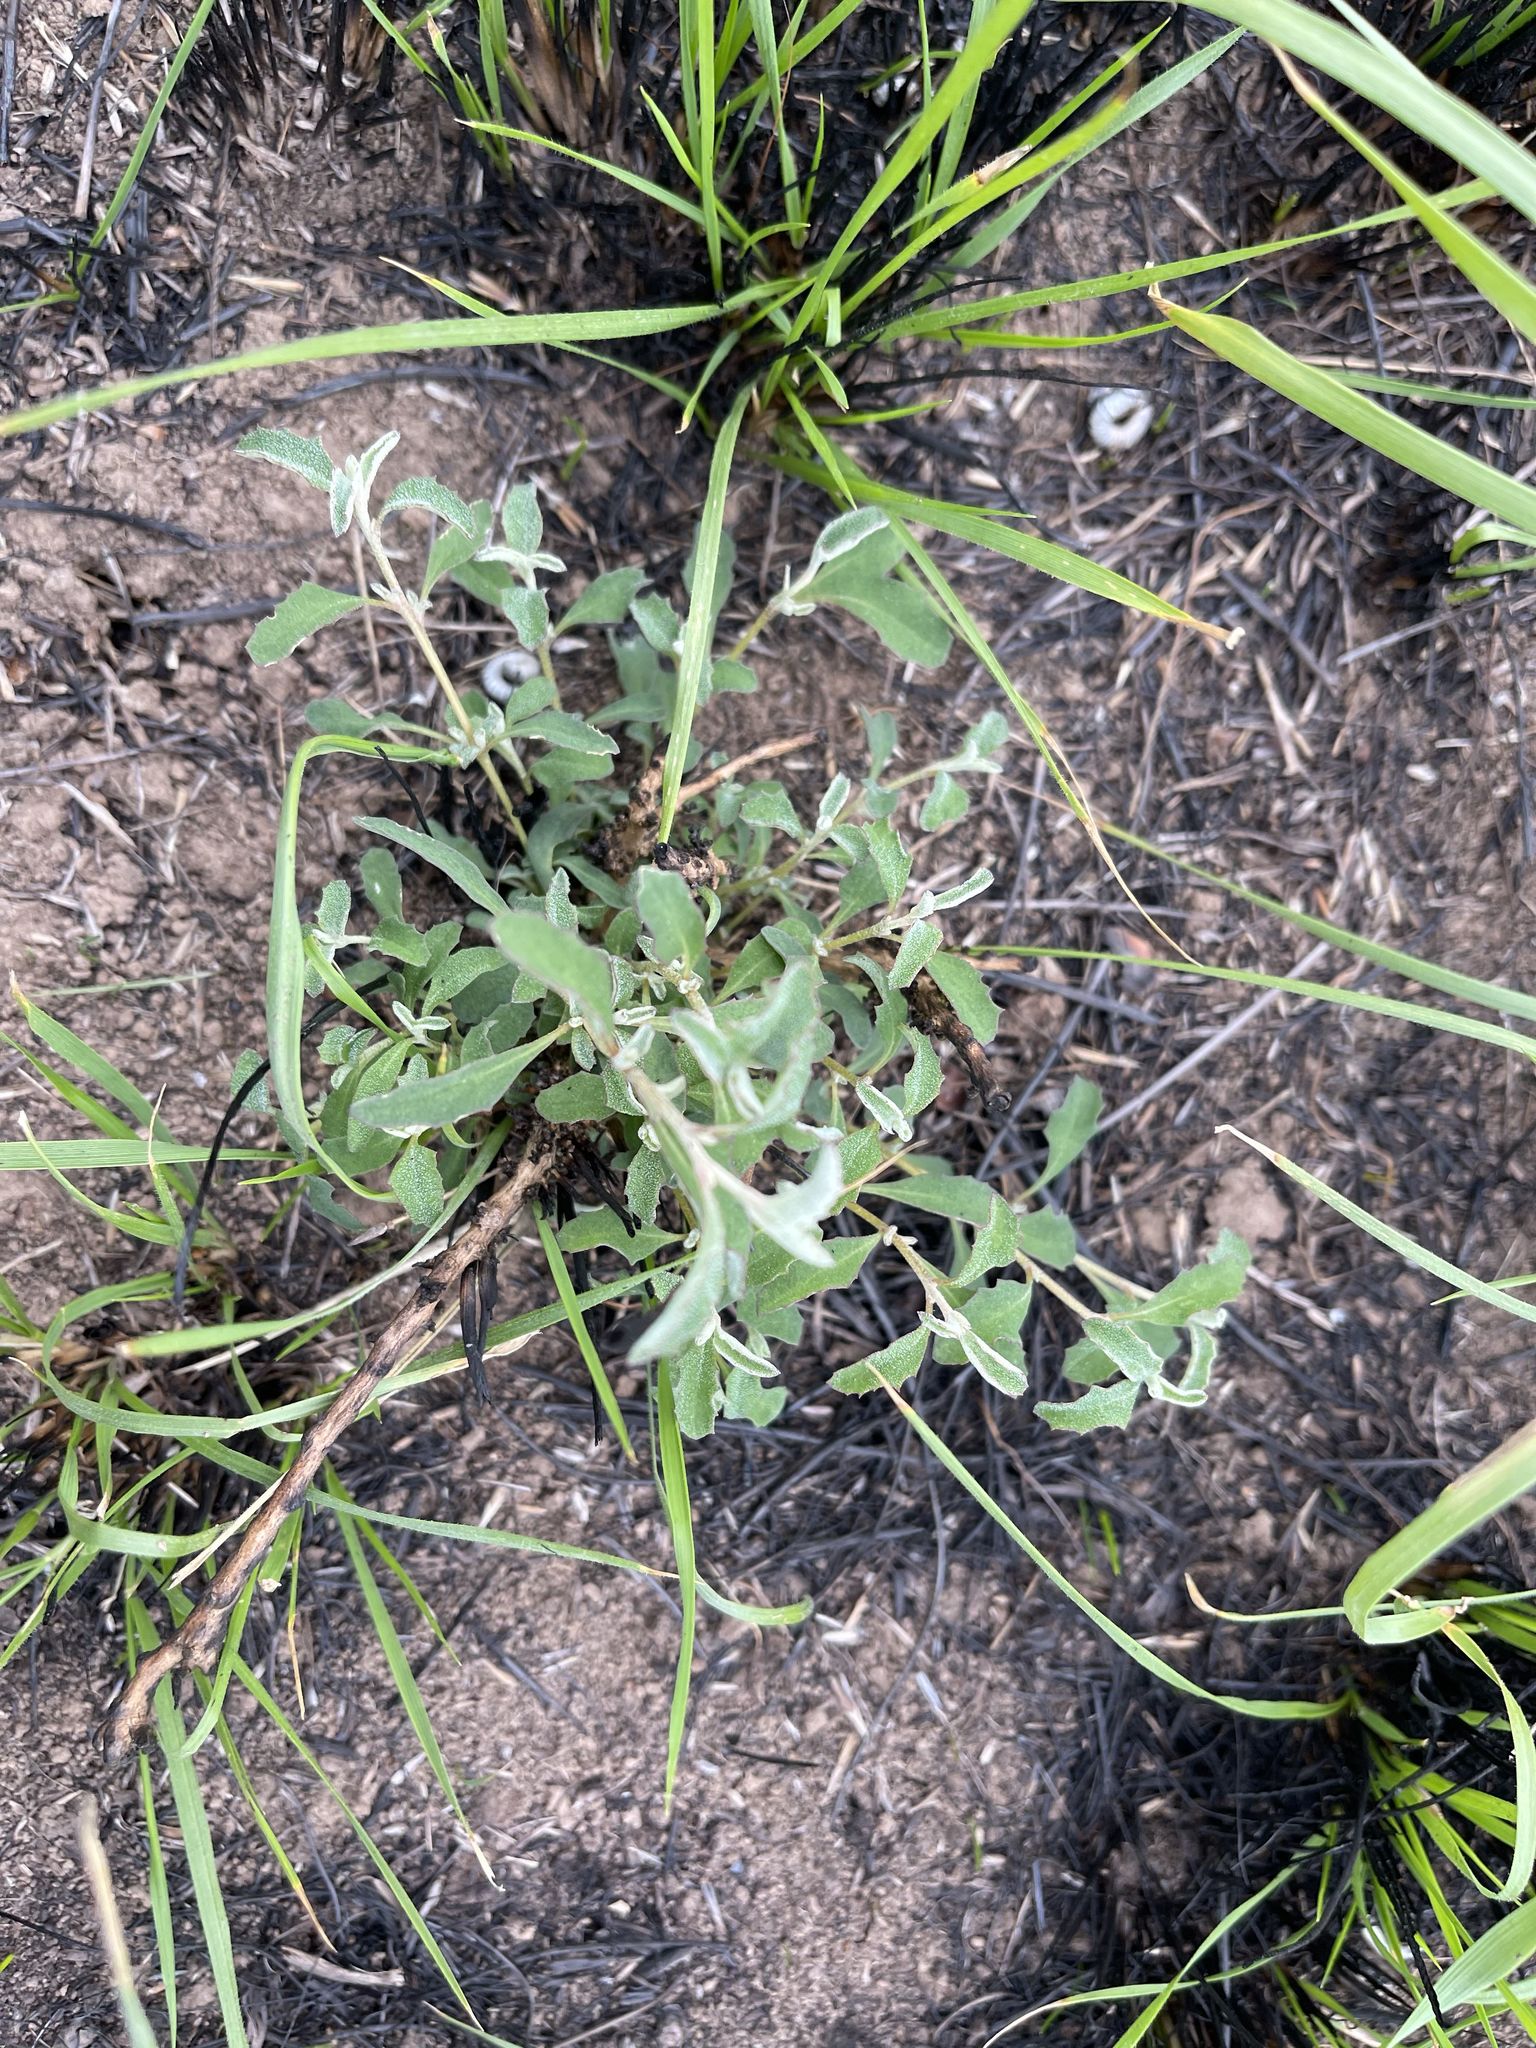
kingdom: Plantae
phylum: Tracheophyta
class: Magnoliopsida
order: Caryophyllales
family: Amaranthaceae
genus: Atriplex
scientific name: Atriplex semibaccata
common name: Australian saltbush
